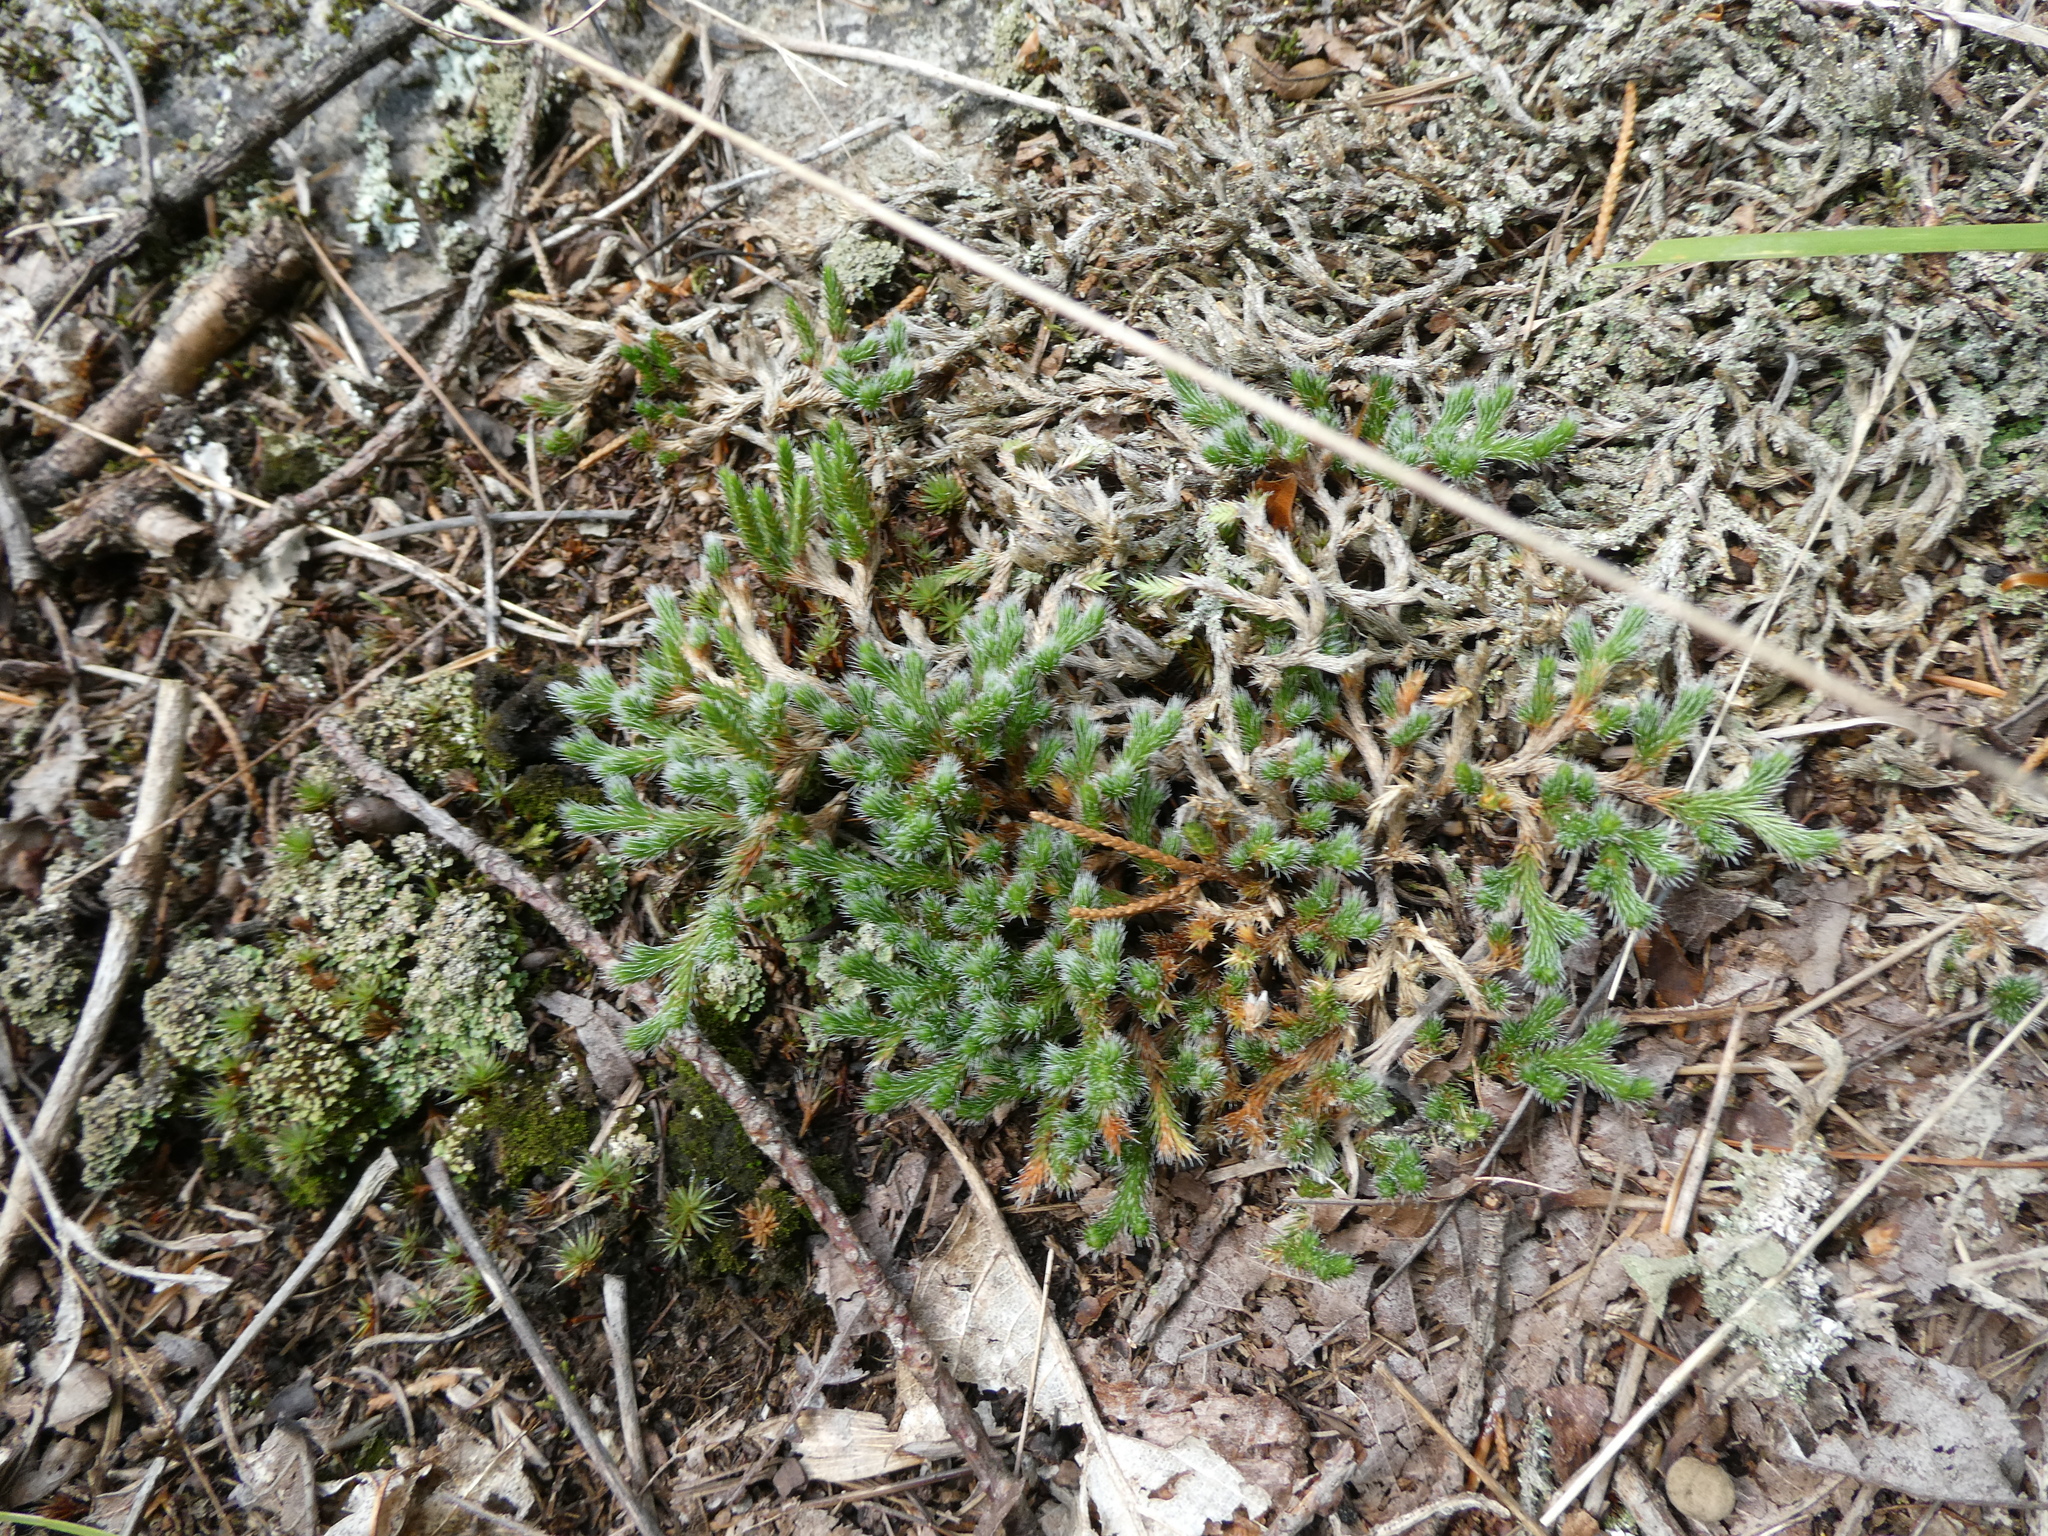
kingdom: Plantae
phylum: Tracheophyta
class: Lycopodiopsida
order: Selaginellales
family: Selaginellaceae
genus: Selaginella
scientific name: Selaginella rupestris
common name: Dwarf spikemoss
